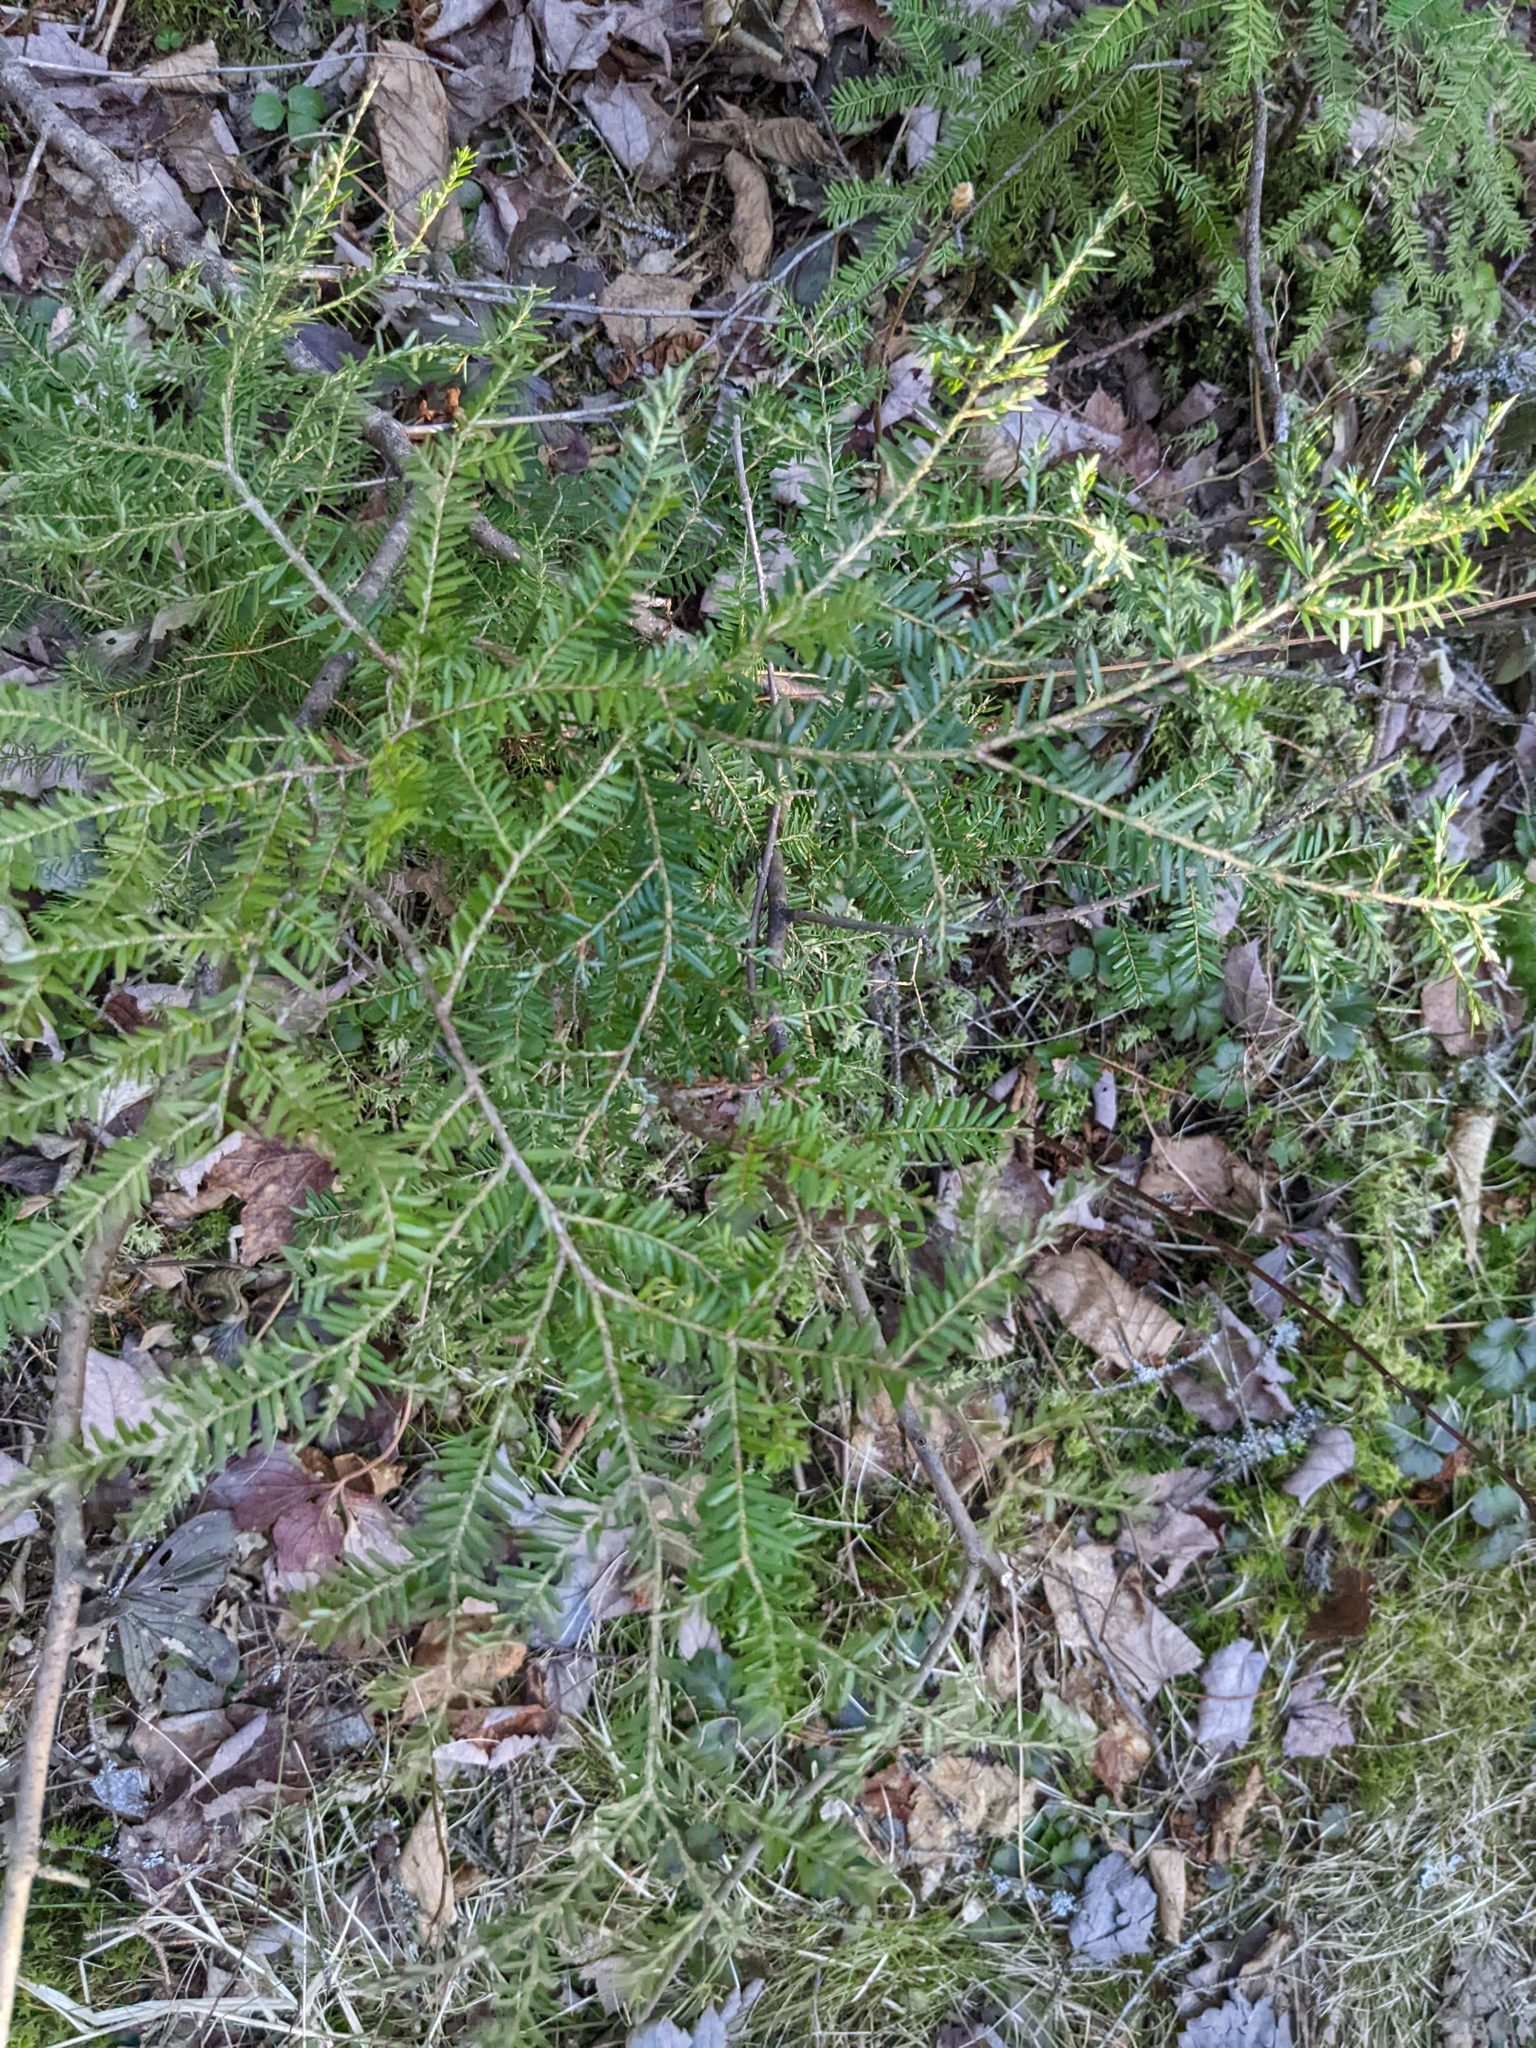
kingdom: Plantae
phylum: Tracheophyta
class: Pinopsida
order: Pinales
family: Pinaceae
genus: Tsuga
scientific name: Tsuga canadensis
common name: Eastern hemlock
